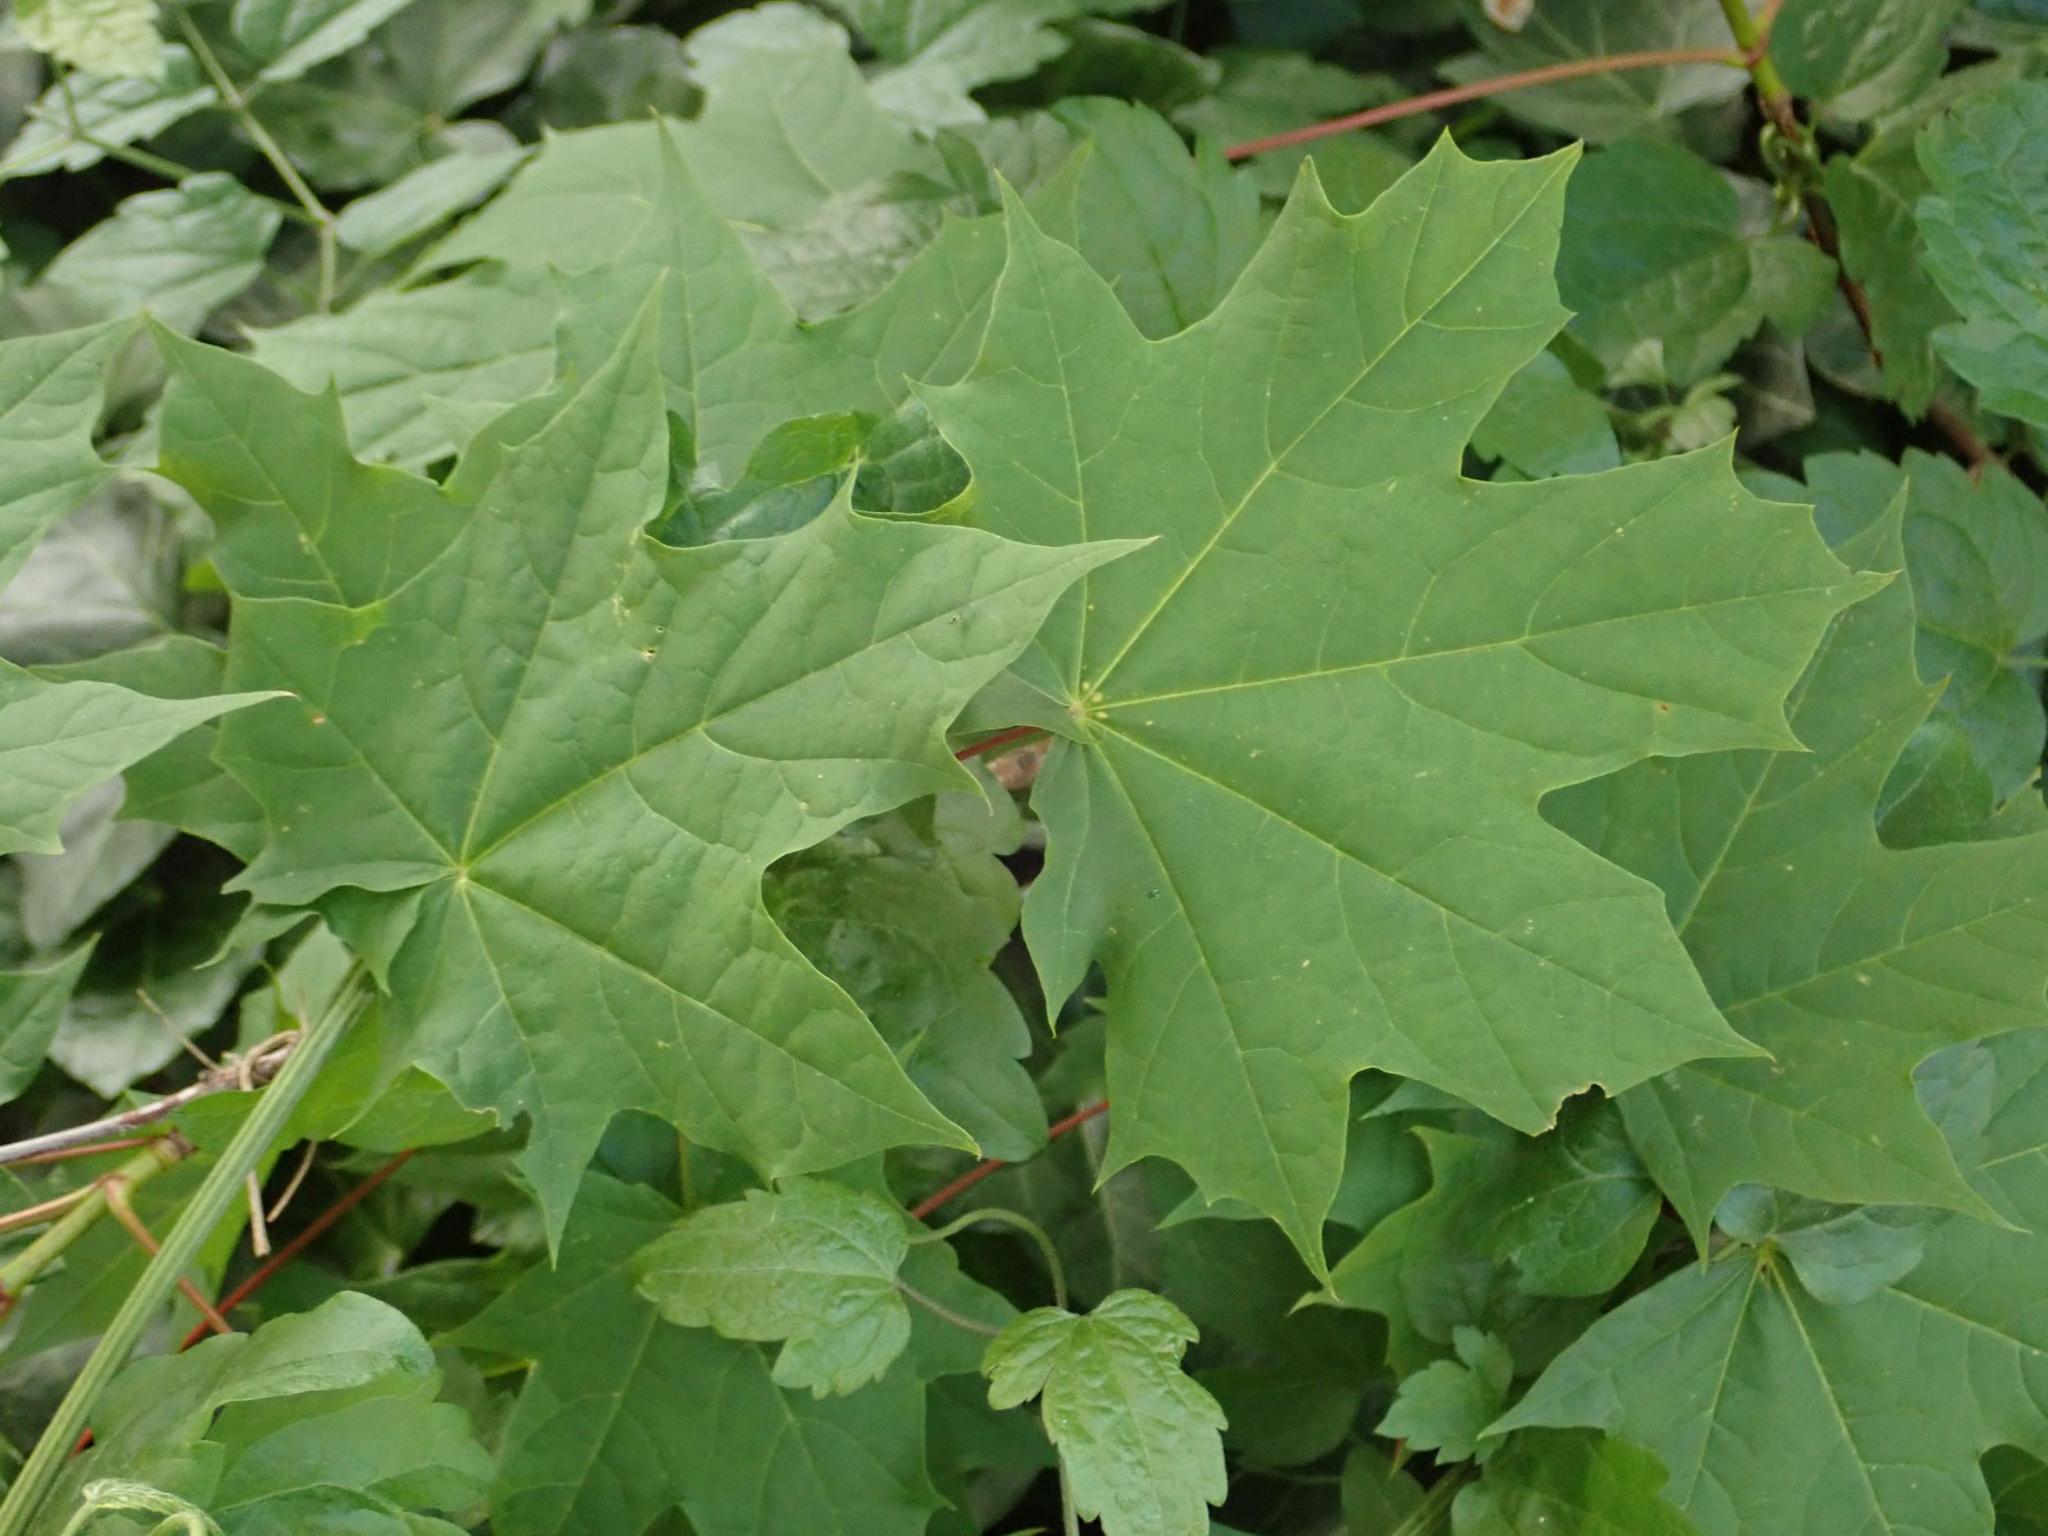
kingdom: Plantae
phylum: Tracheophyta
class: Magnoliopsida
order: Sapindales
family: Sapindaceae
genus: Acer
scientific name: Acer platanoides
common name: Norway maple
